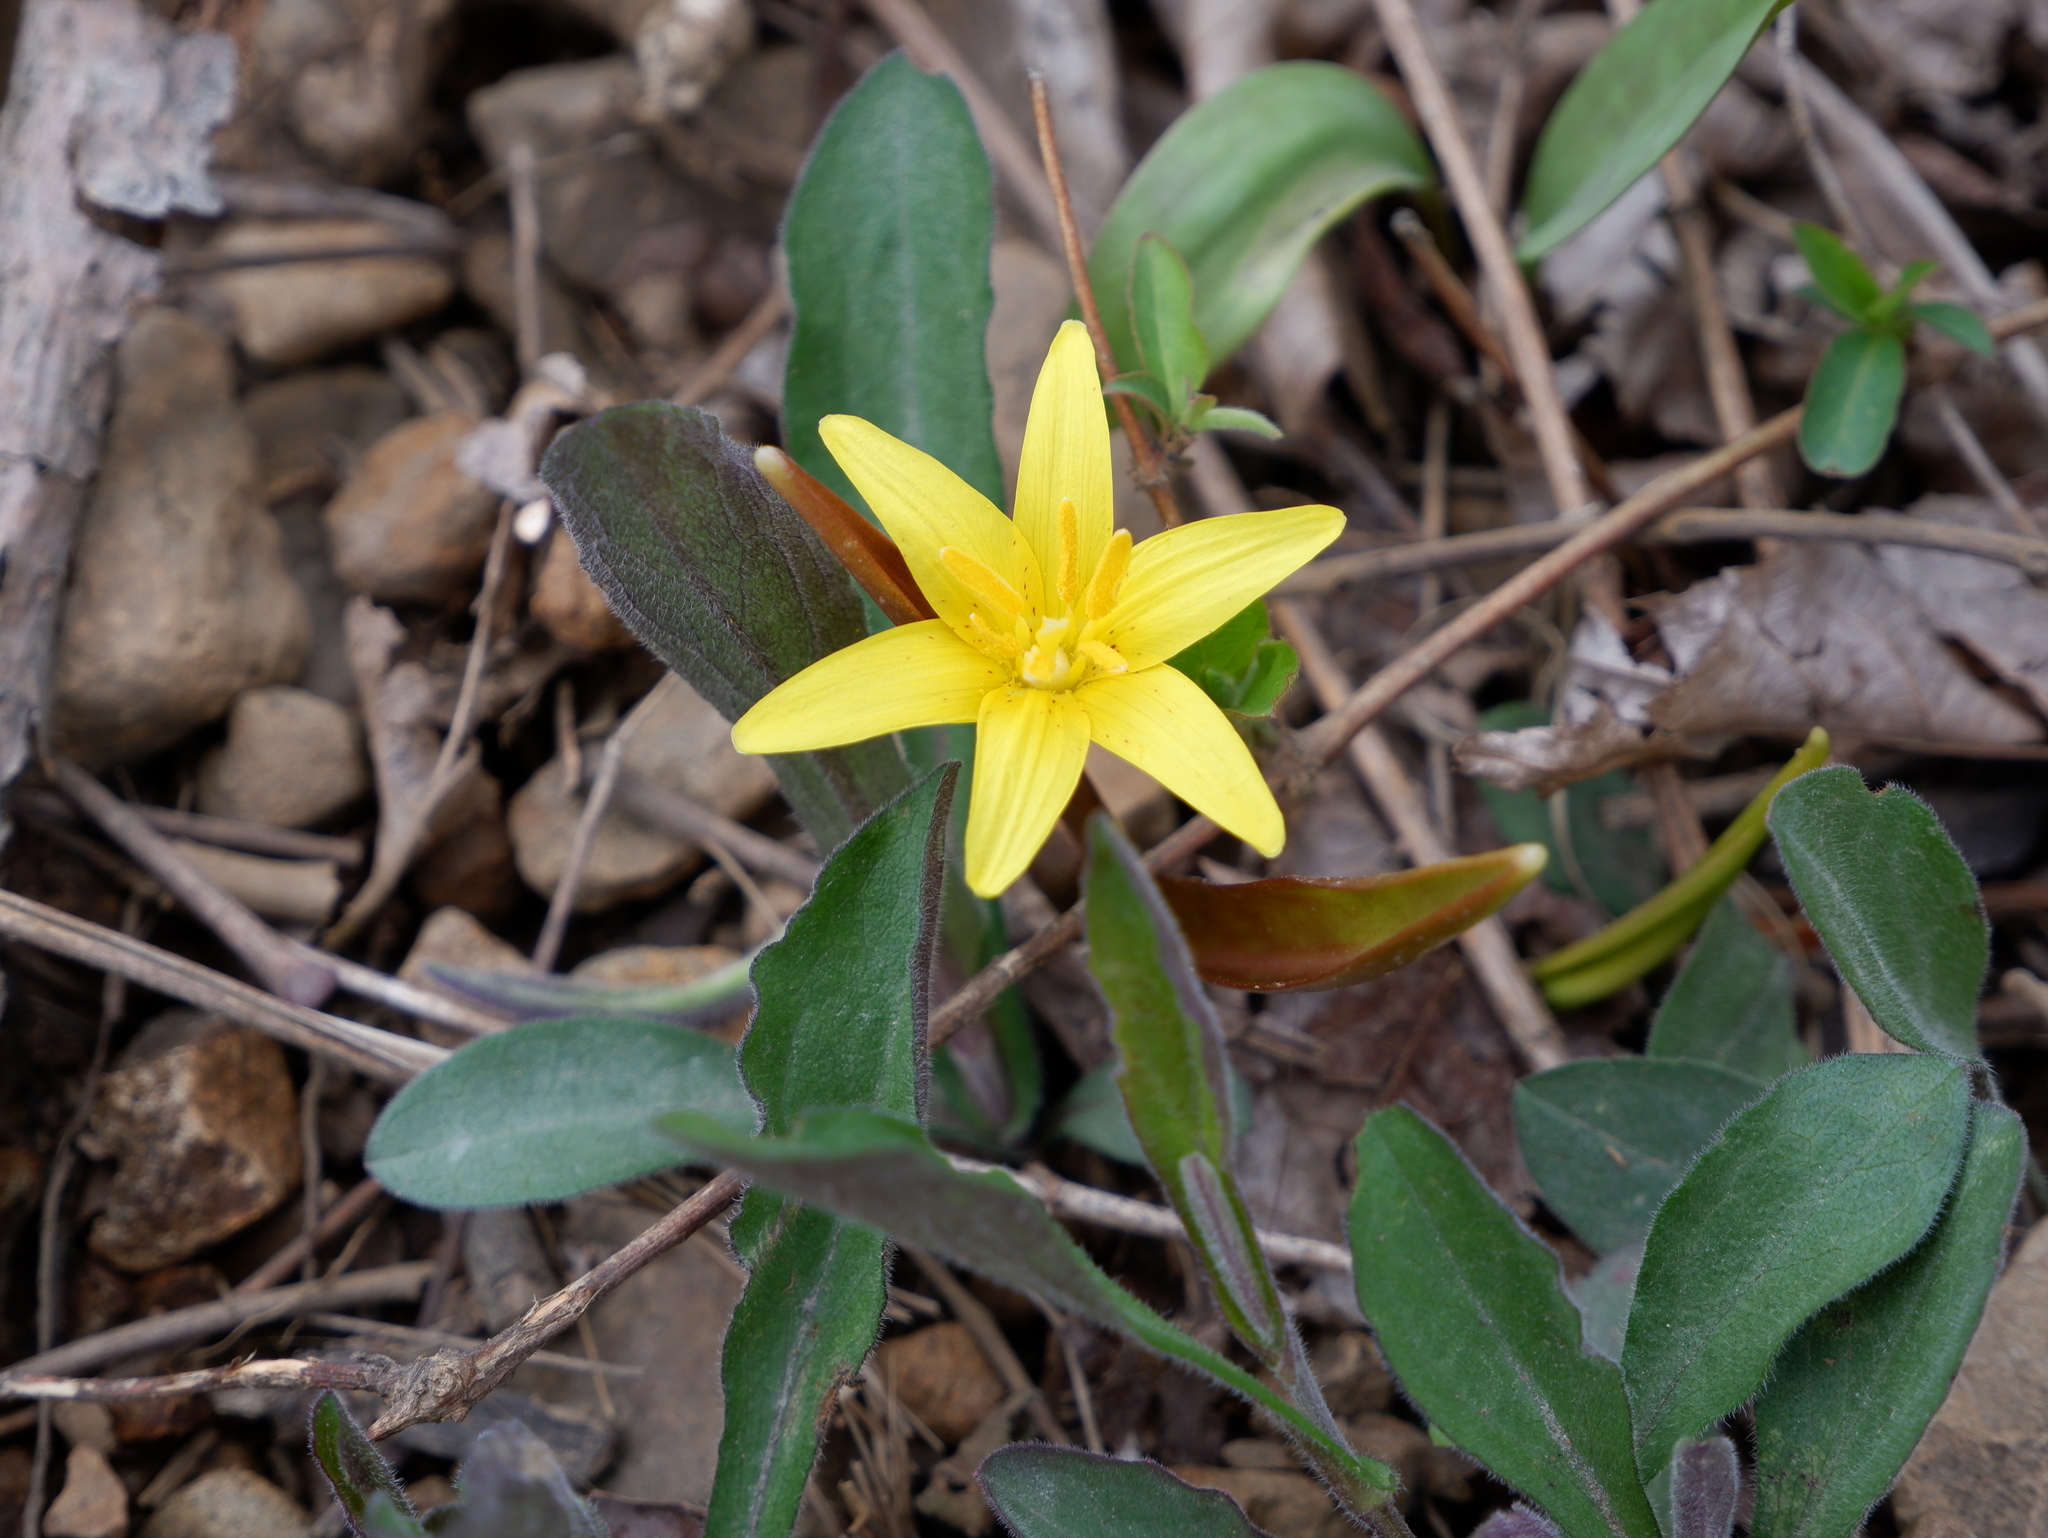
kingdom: Plantae
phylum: Tracheophyta
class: Liliopsida
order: Liliales
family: Liliaceae
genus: Erythronium
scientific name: Erythronium americanum
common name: Yellow adder's-tongue
